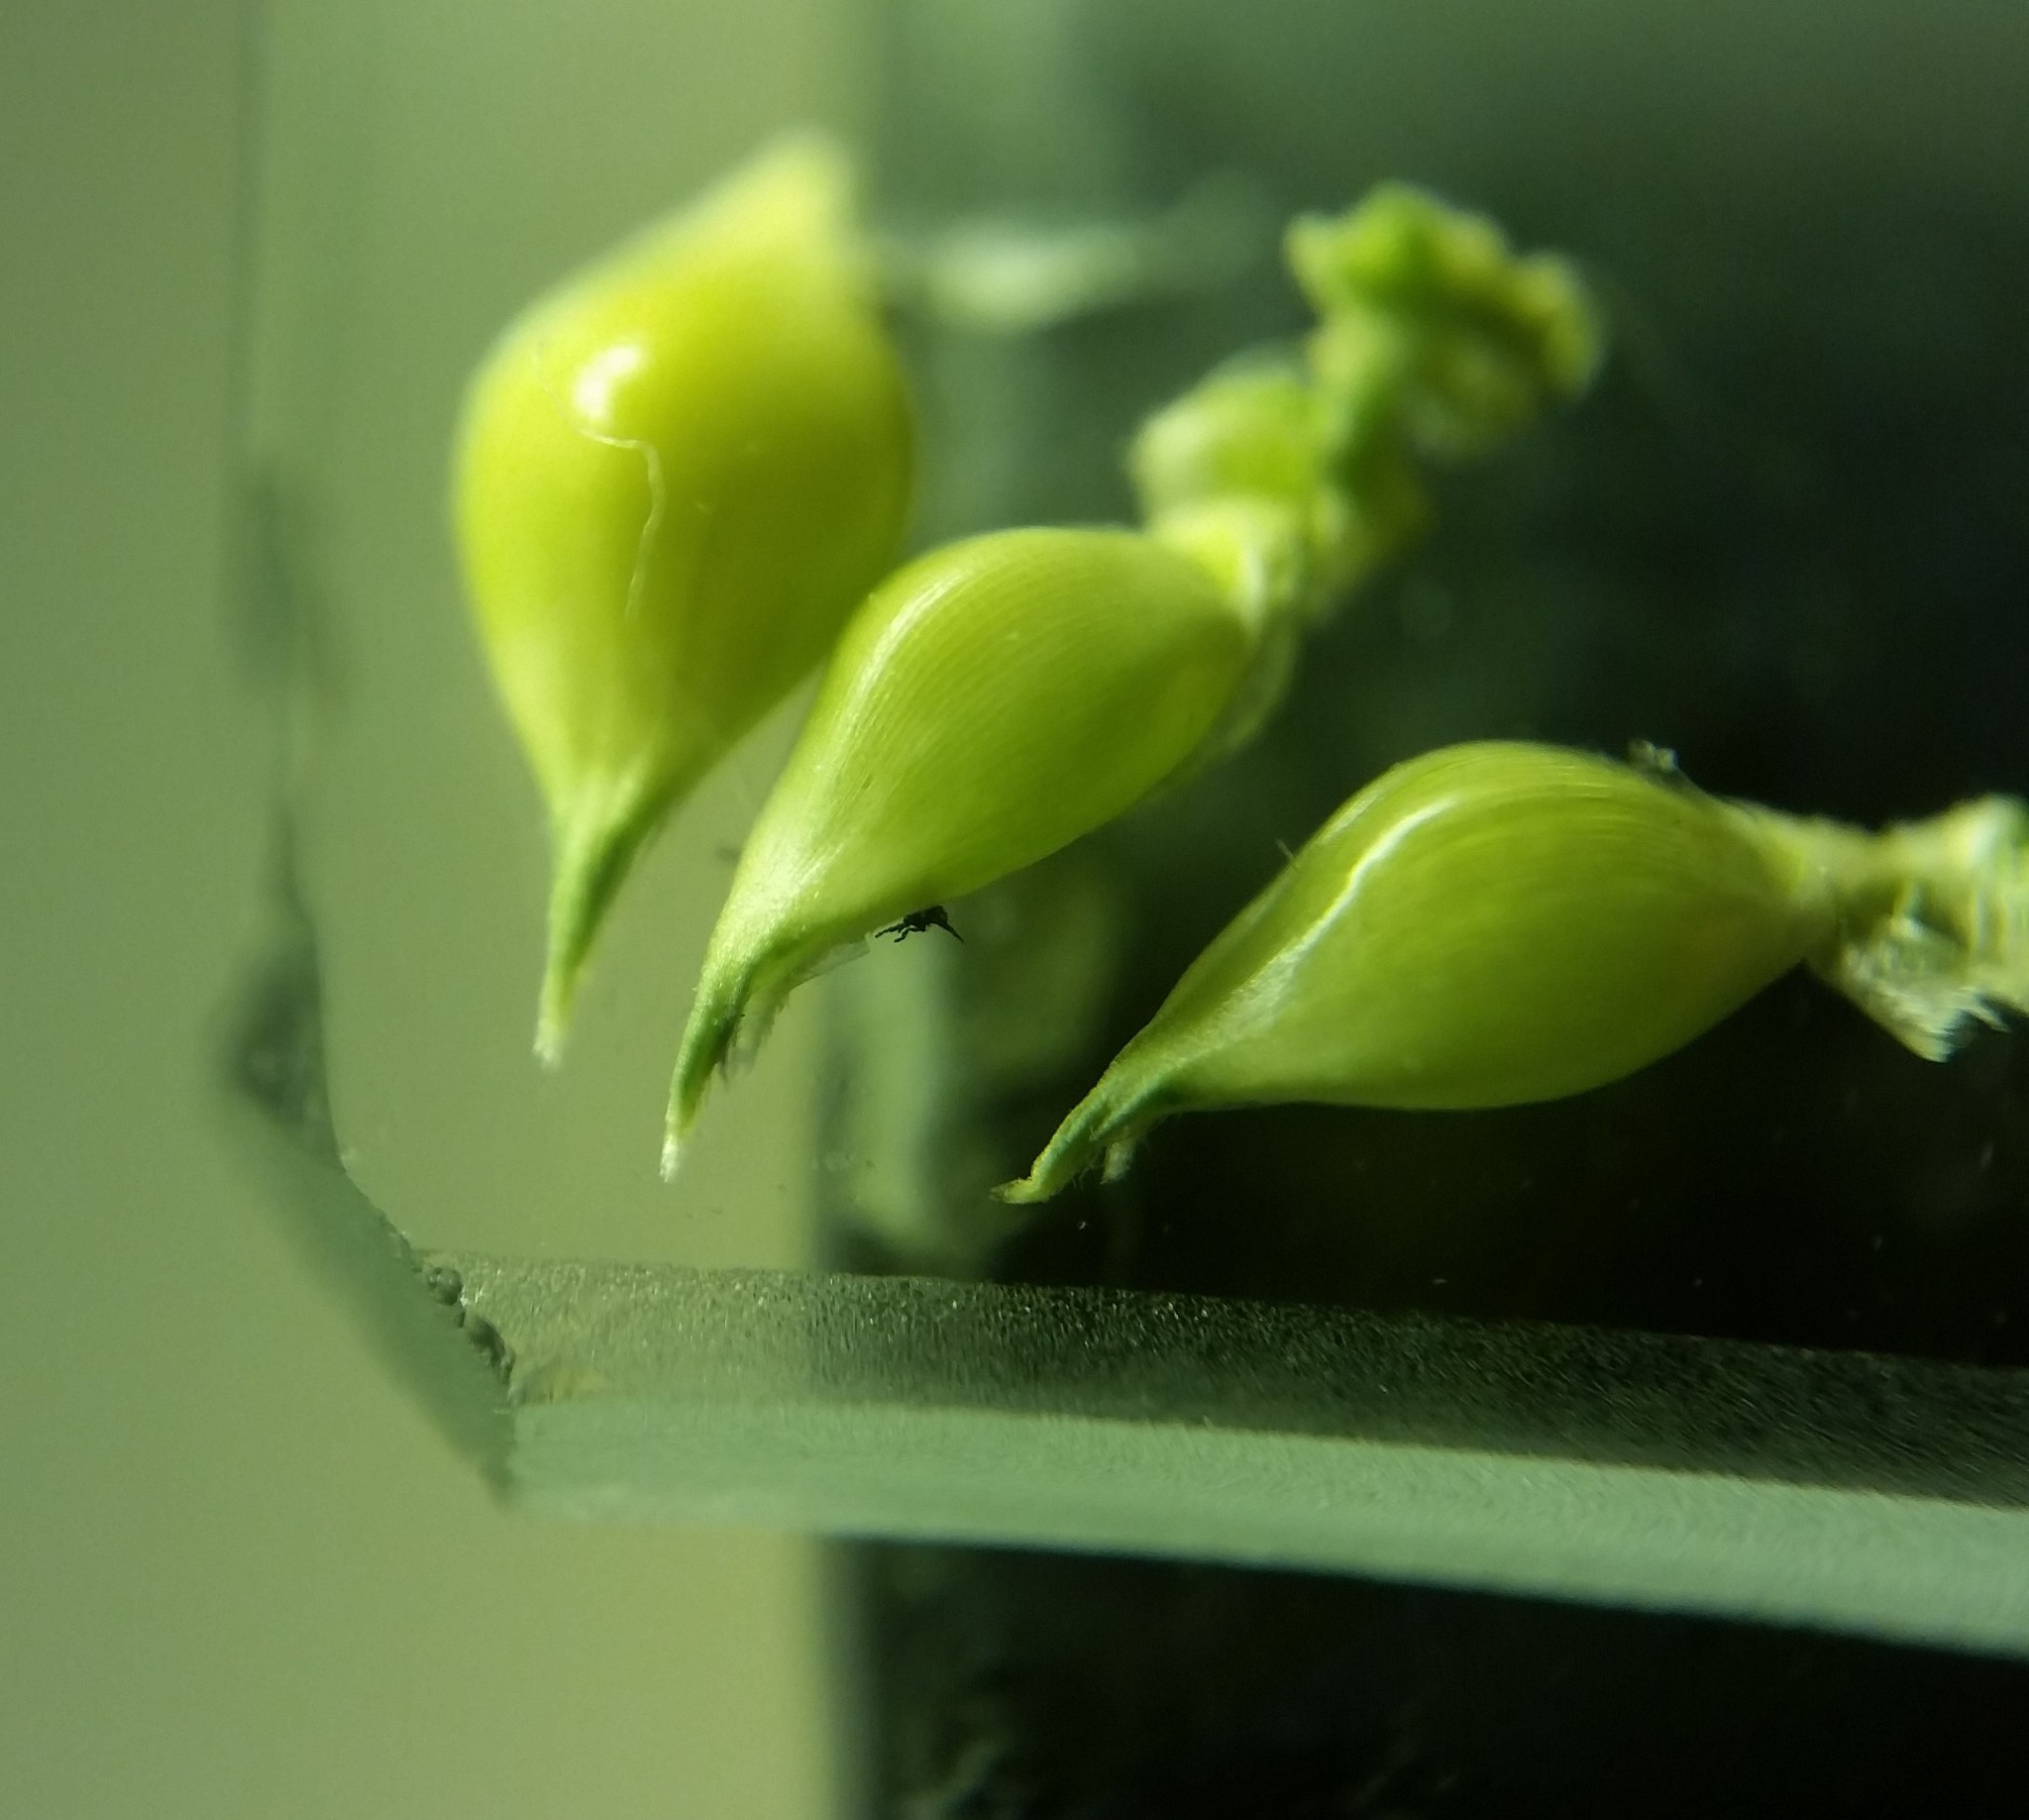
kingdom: Plantae
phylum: Tracheophyta
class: Liliopsida
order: Poales
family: Poaceae
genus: Echinochloa
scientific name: Echinochloa muricata
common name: American barnyard grass
